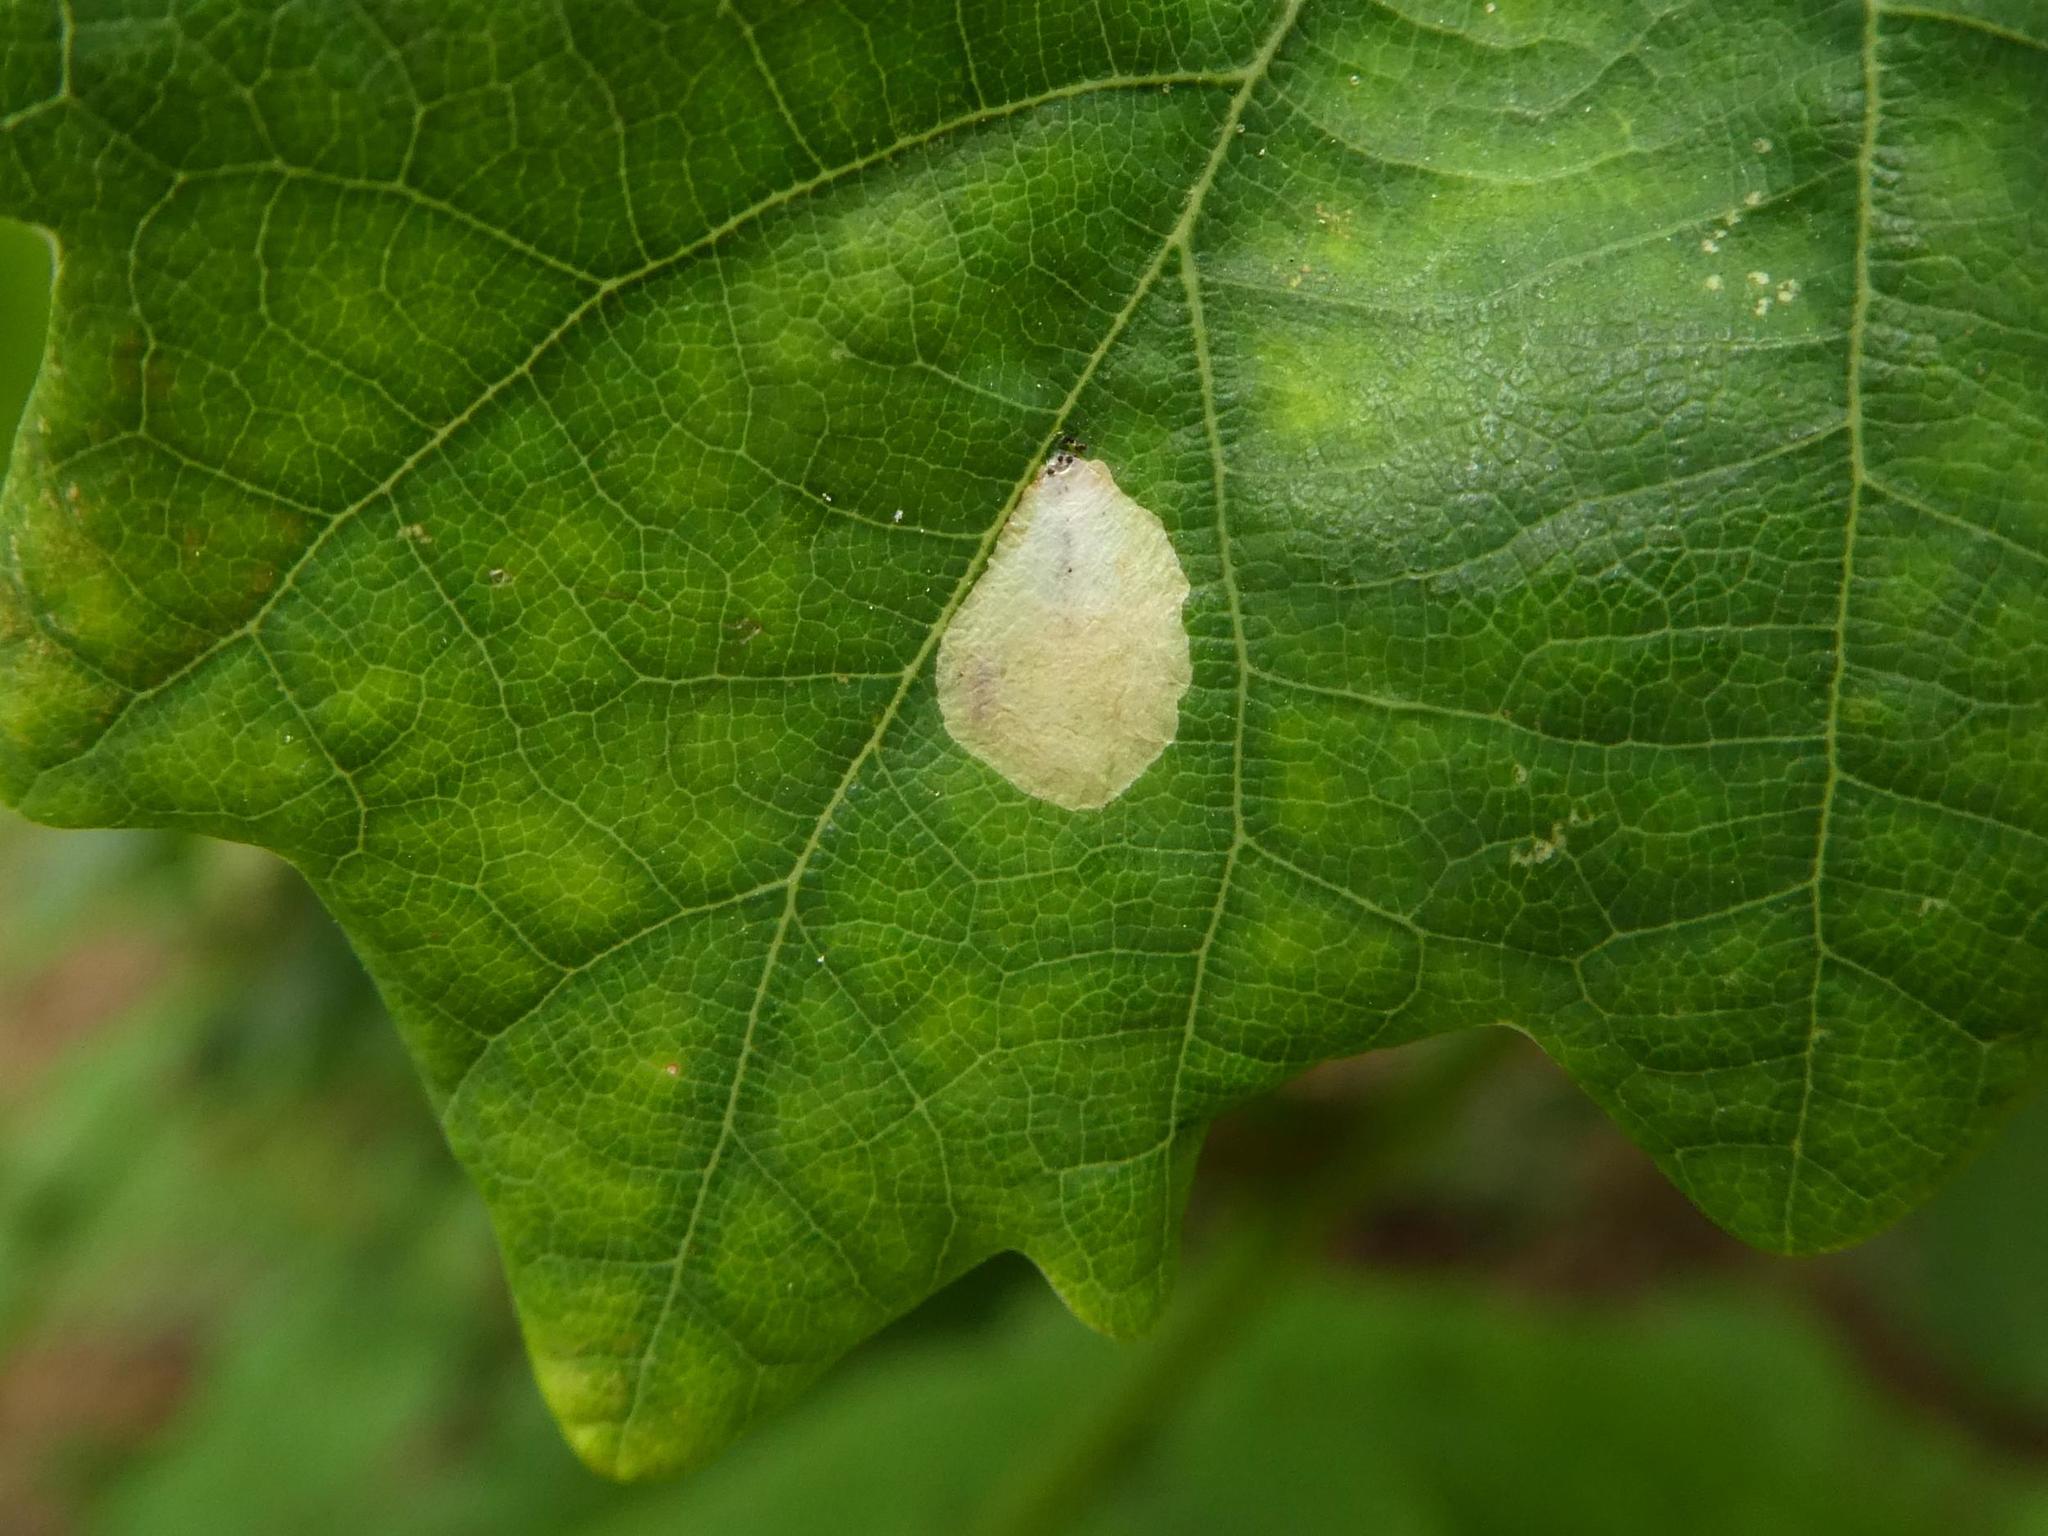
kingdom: Animalia
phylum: Arthropoda
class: Insecta
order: Lepidoptera
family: Tischeriidae
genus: Tischeria
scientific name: Tischeria ekebladella
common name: Oak carl
